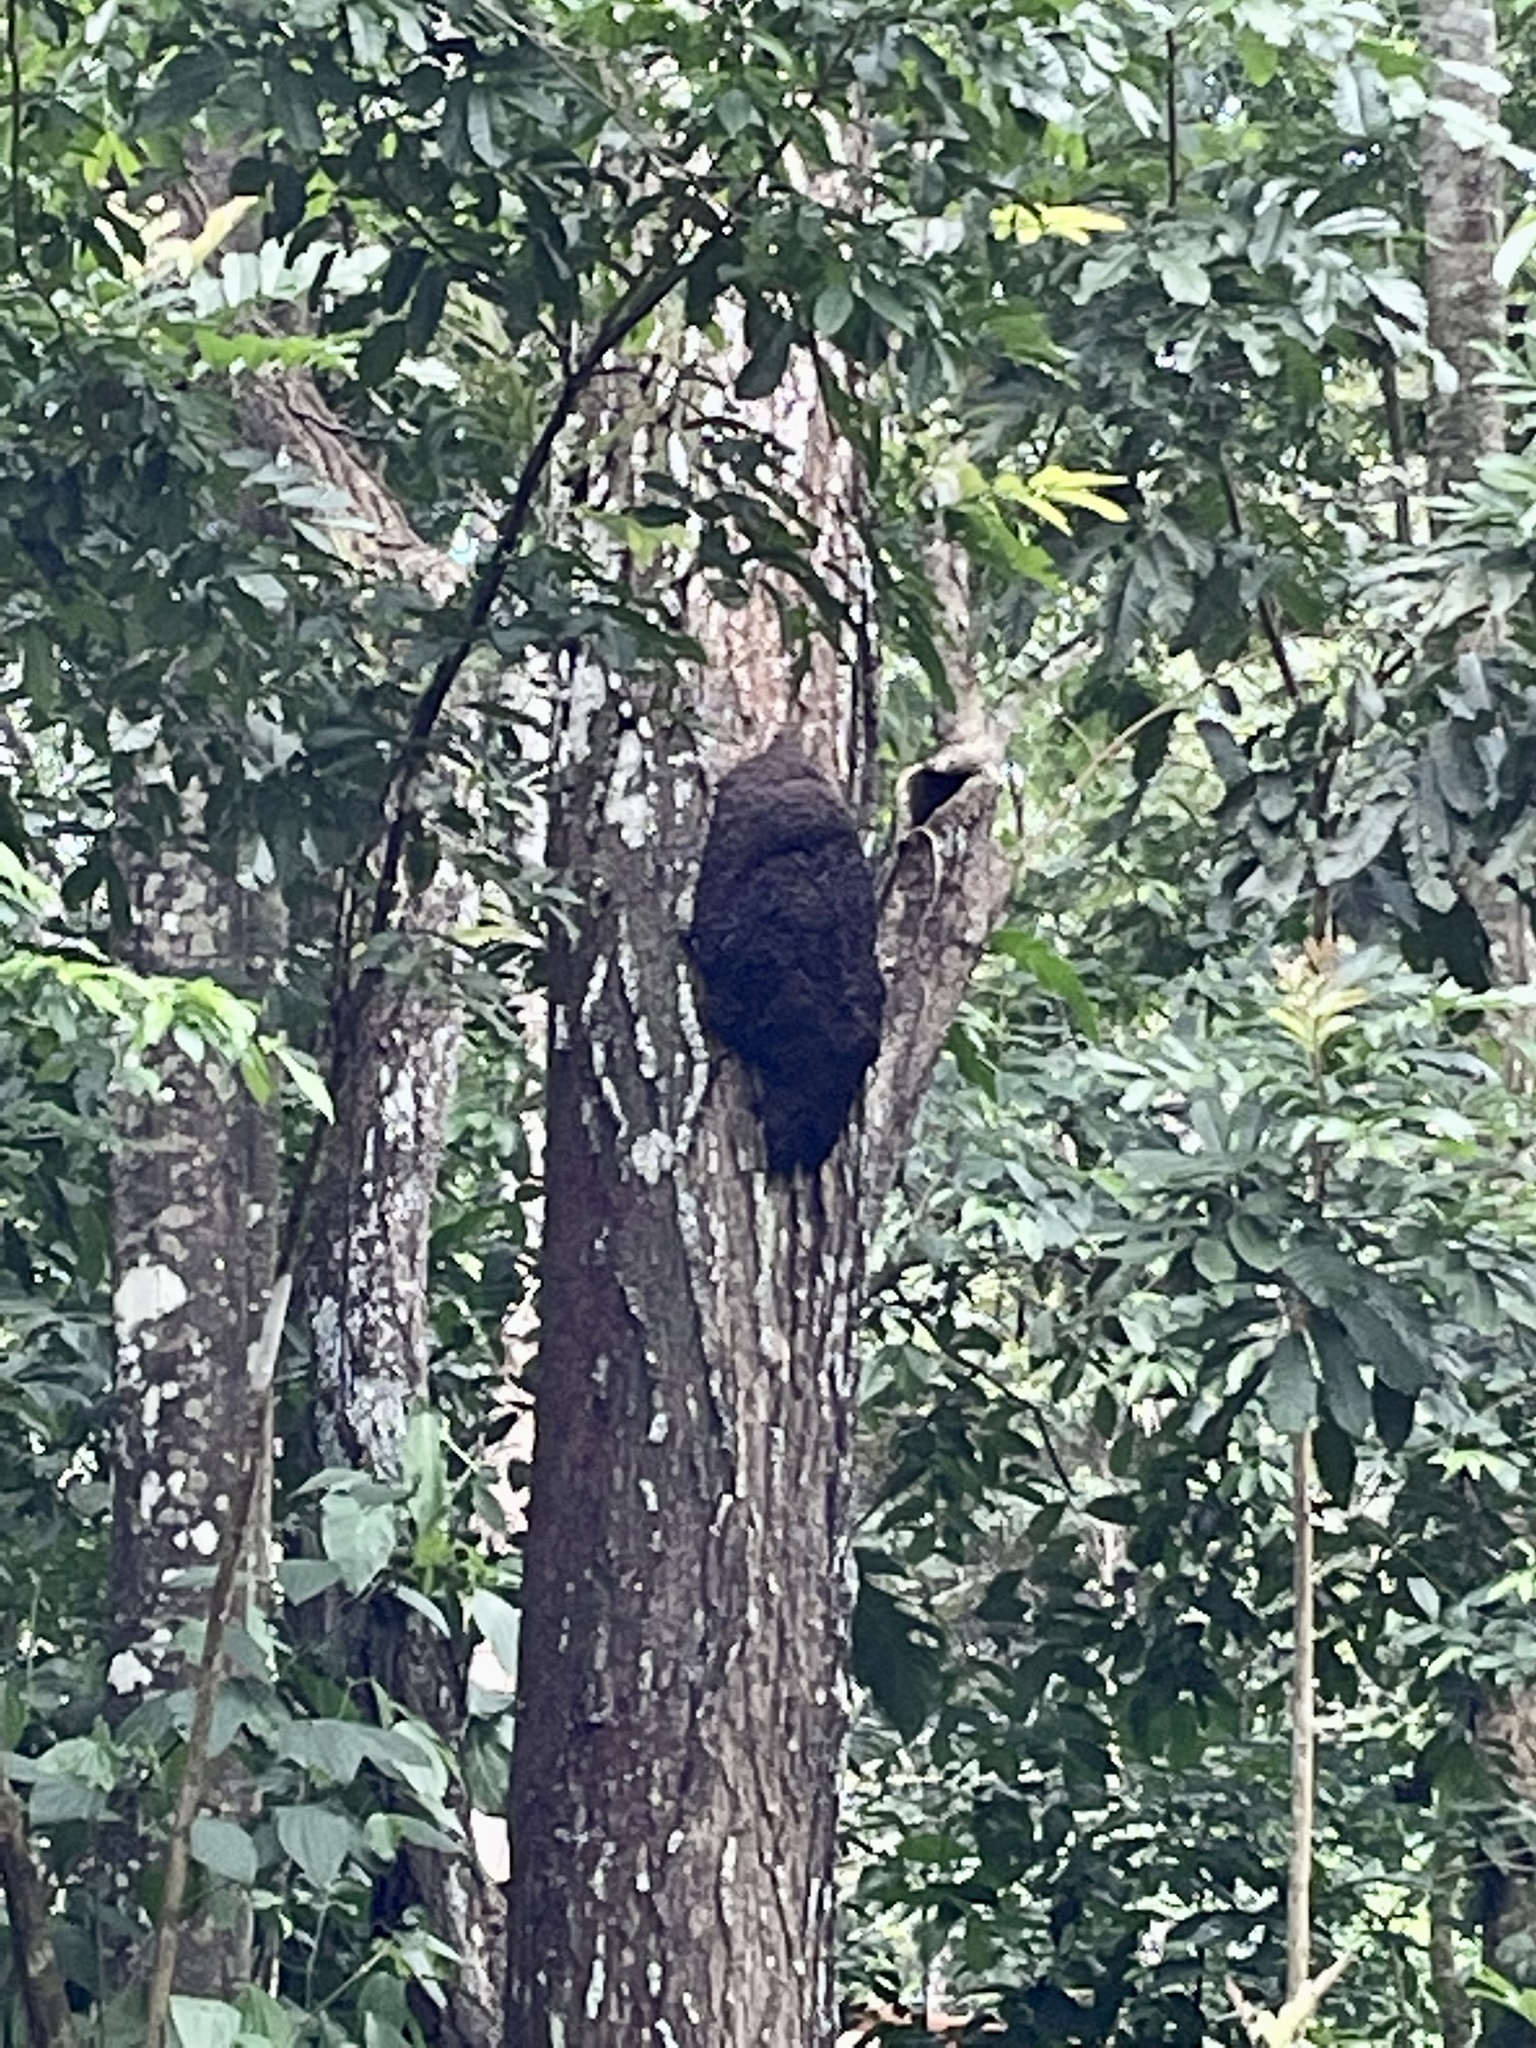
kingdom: Animalia
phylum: Arthropoda
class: Insecta
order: Blattodea
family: Termitidae
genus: Nasutitermes
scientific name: Nasutitermes corniger
